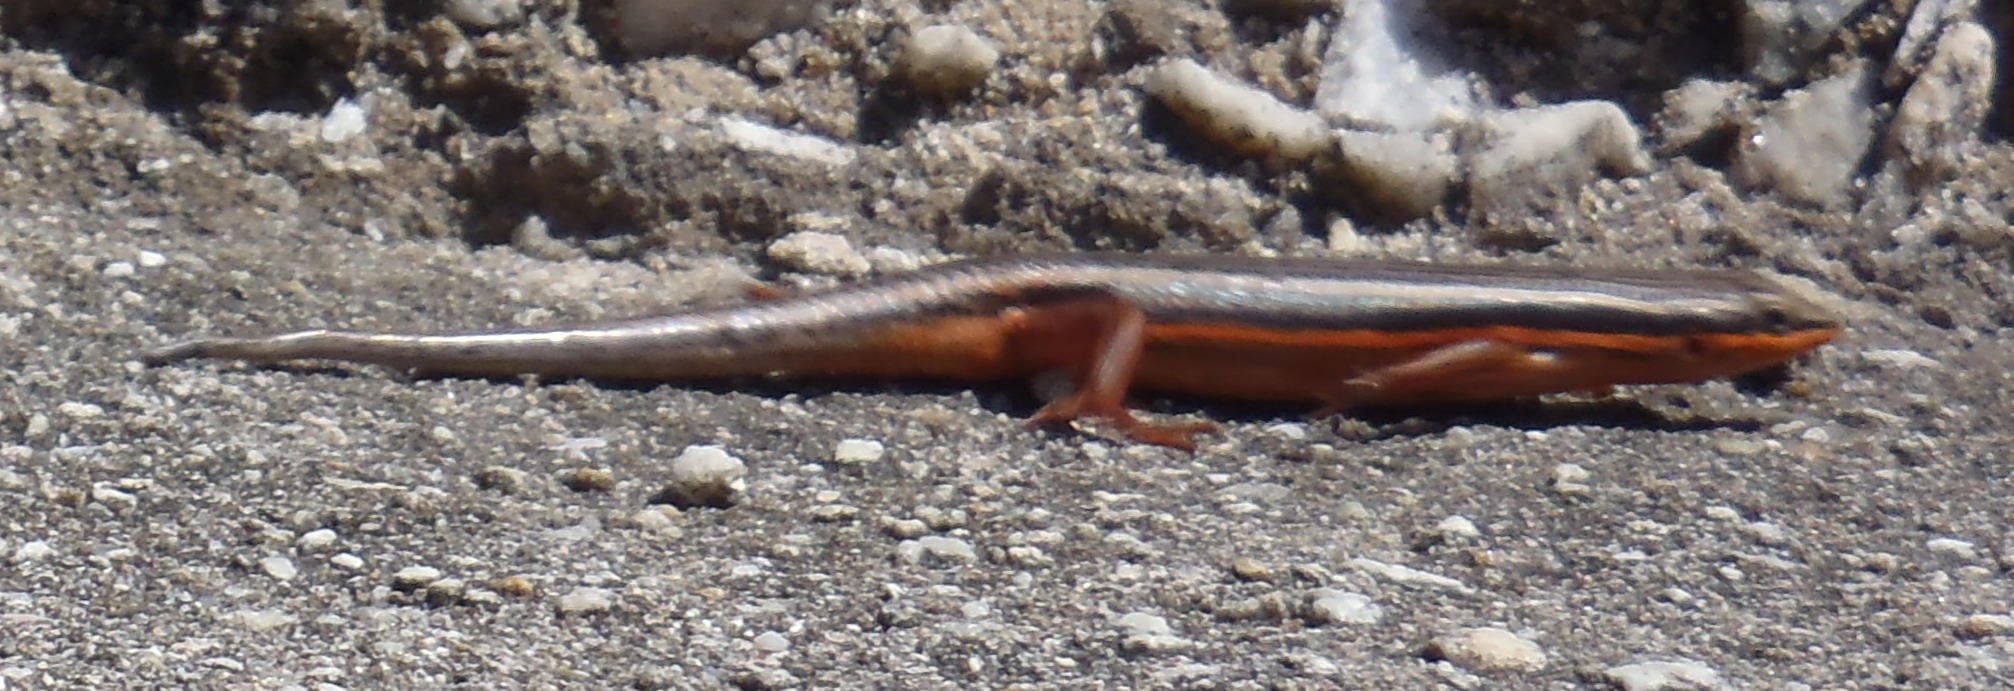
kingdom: Animalia
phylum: Chordata
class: Squamata
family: Scincidae
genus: Trachylepis
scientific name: Trachylepis homalocephala
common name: Red-sided skink
